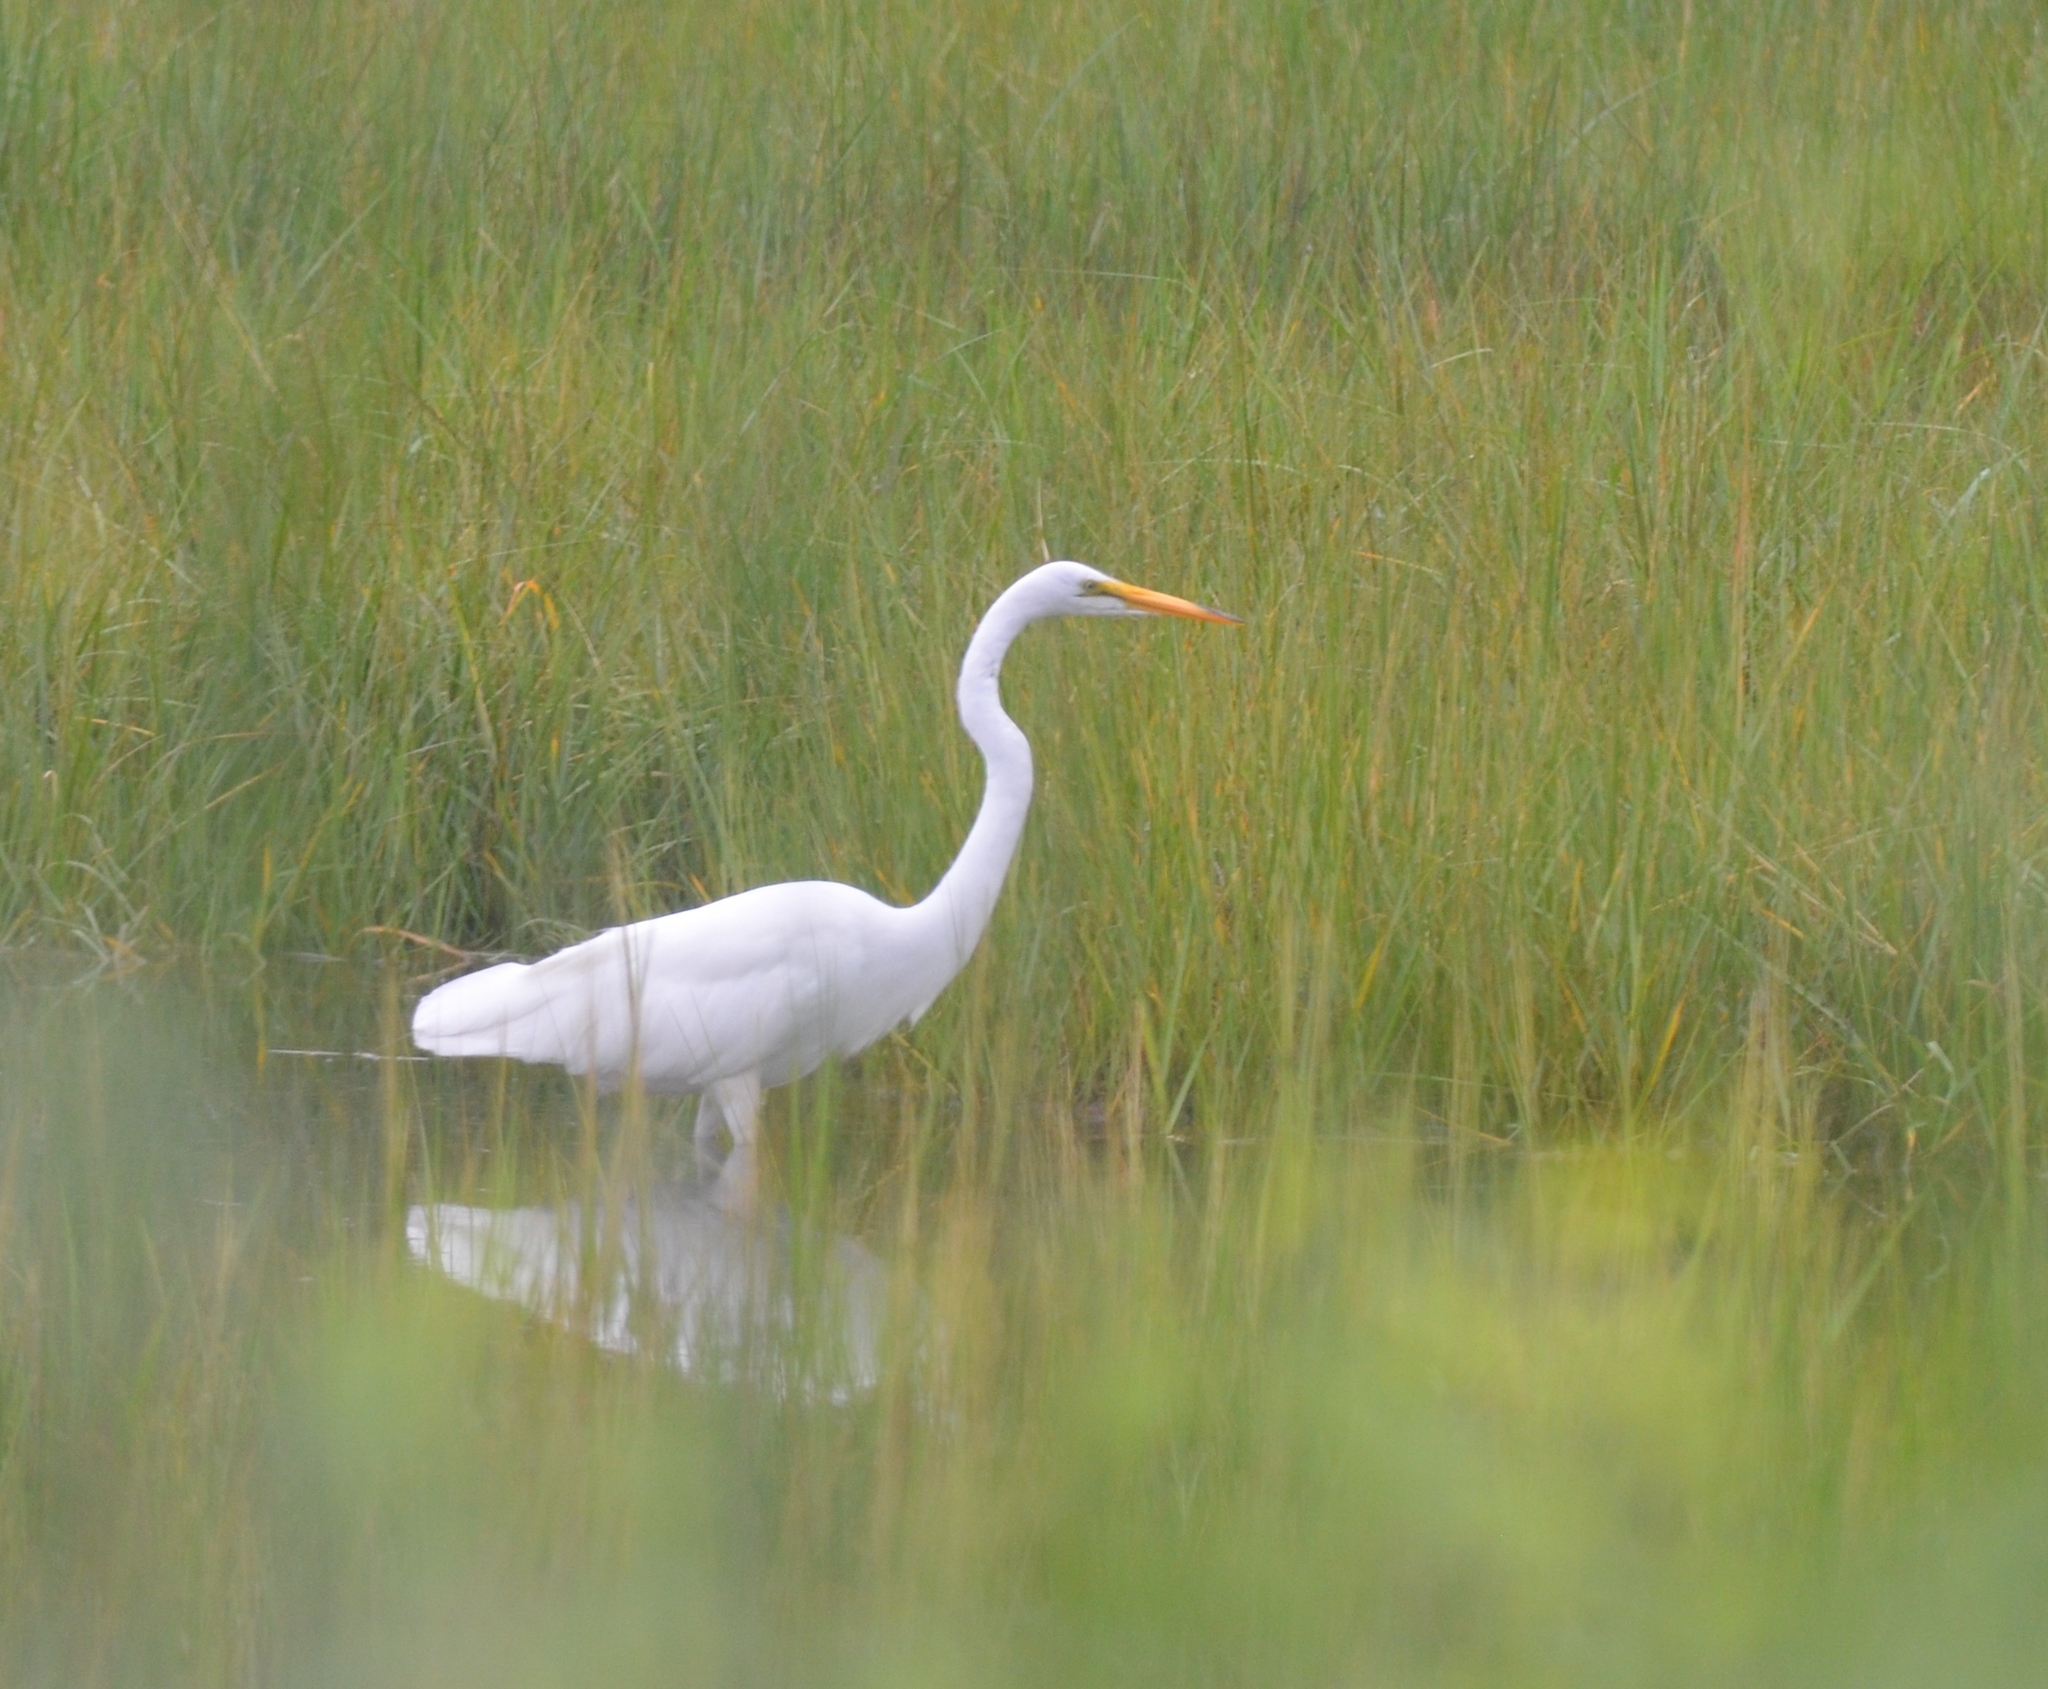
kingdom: Animalia
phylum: Chordata
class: Aves
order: Pelecaniformes
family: Ardeidae
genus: Ardea
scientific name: Ardea alba
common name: Great egret
